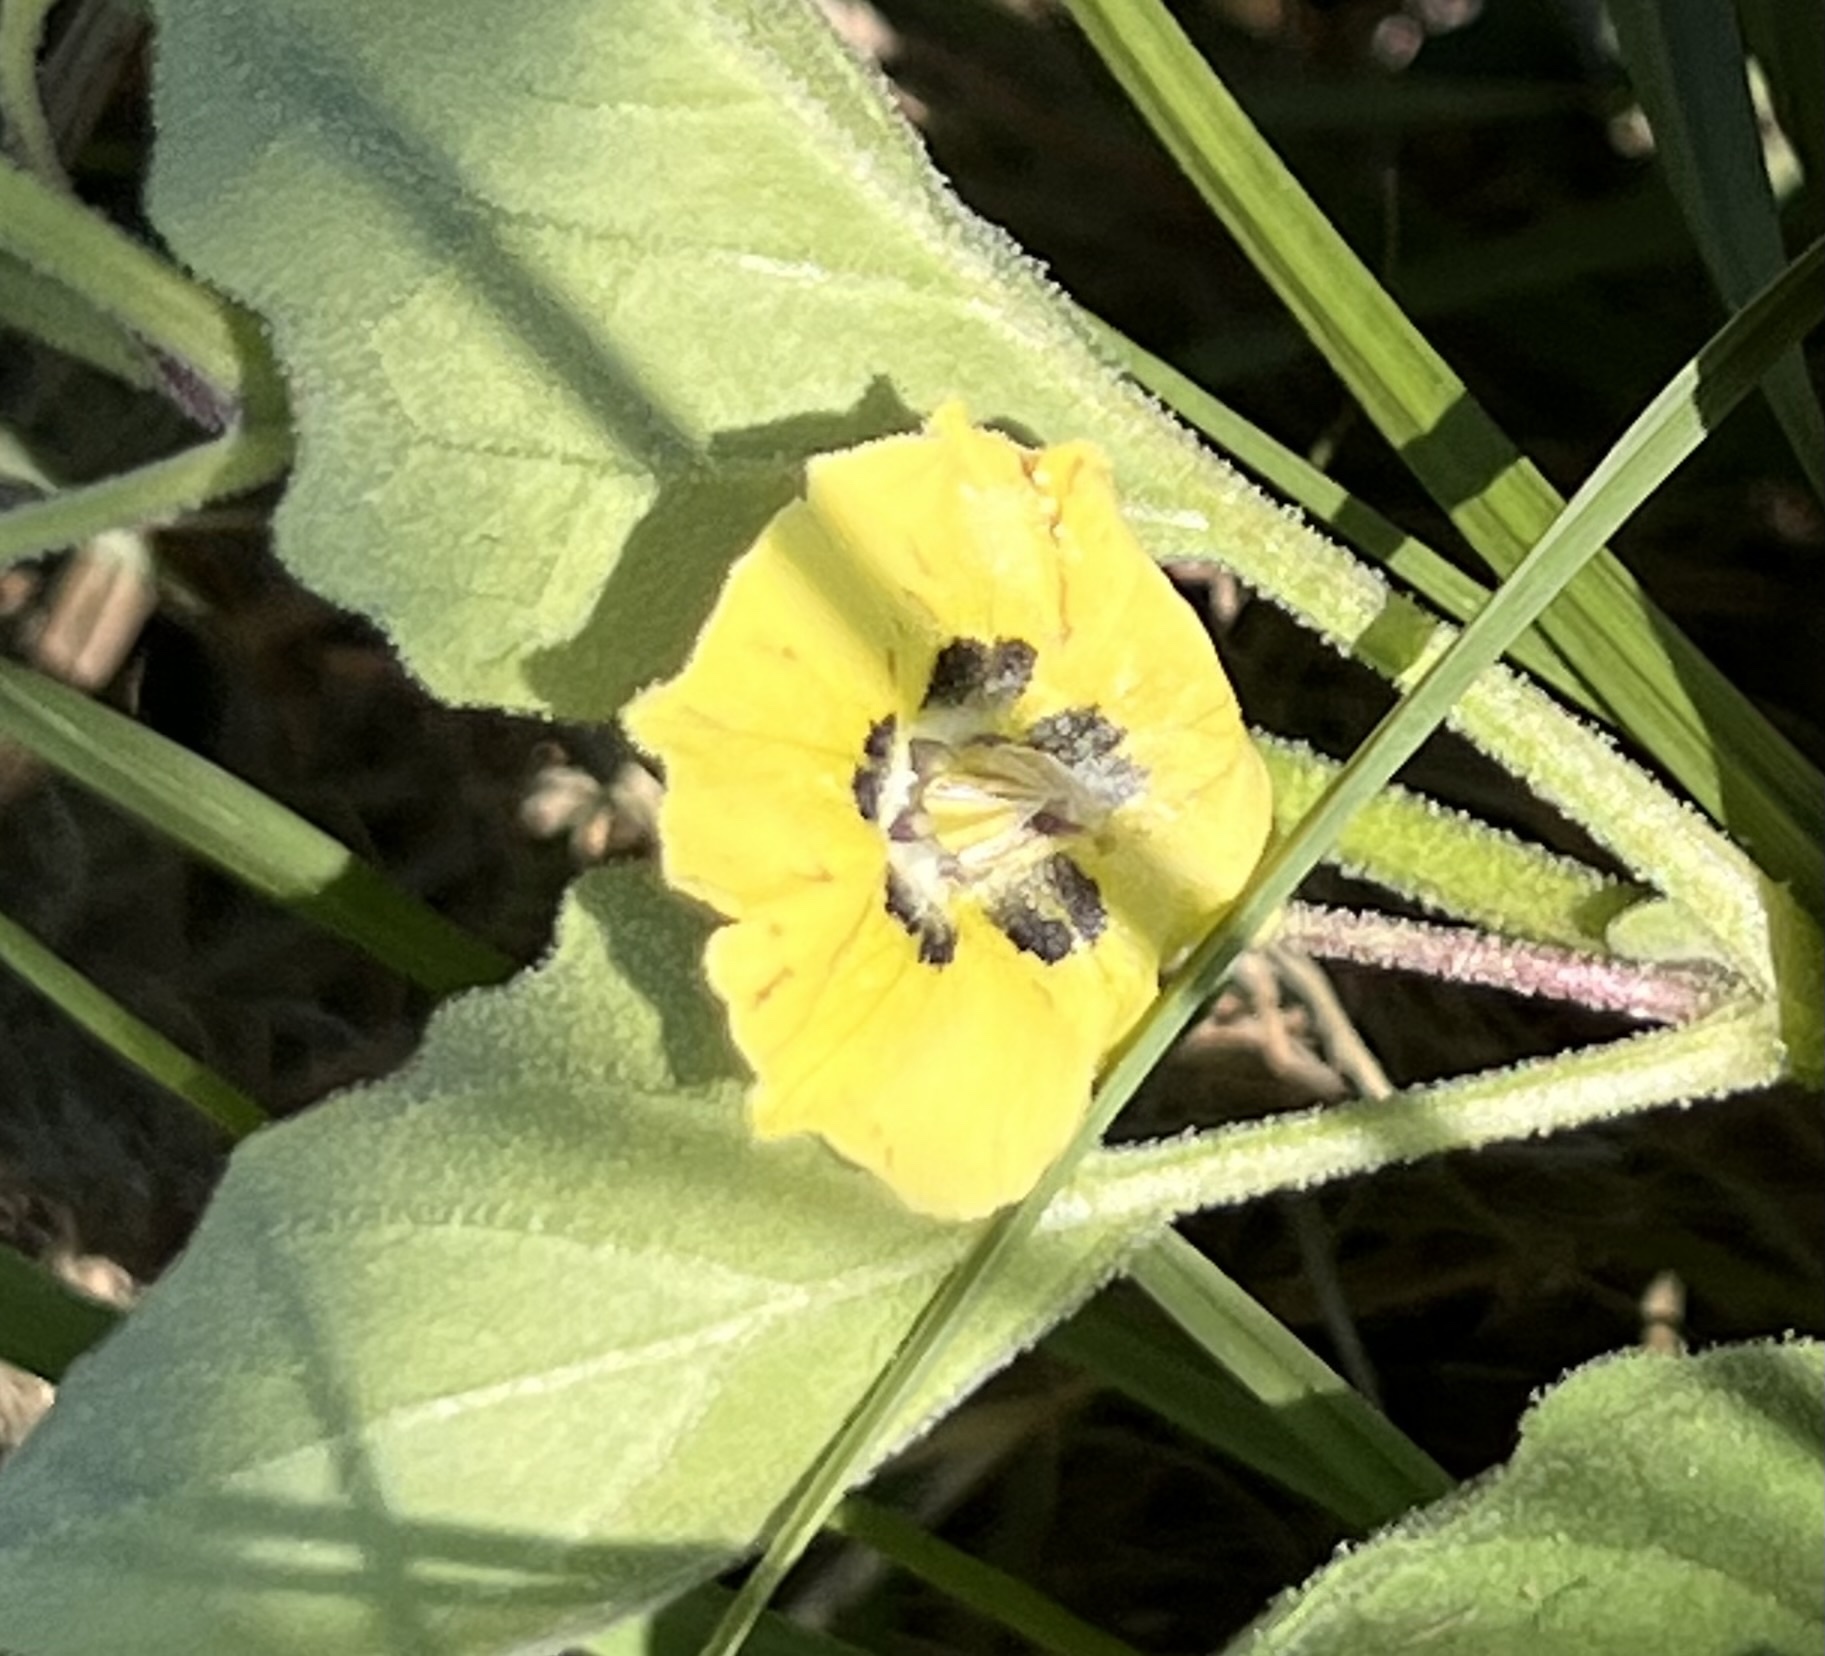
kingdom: Plantae
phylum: Tracheophyta
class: Magnoliopsida
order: Solanales
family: Solanaceae
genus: Physalis
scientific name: Physalis cinerascens
